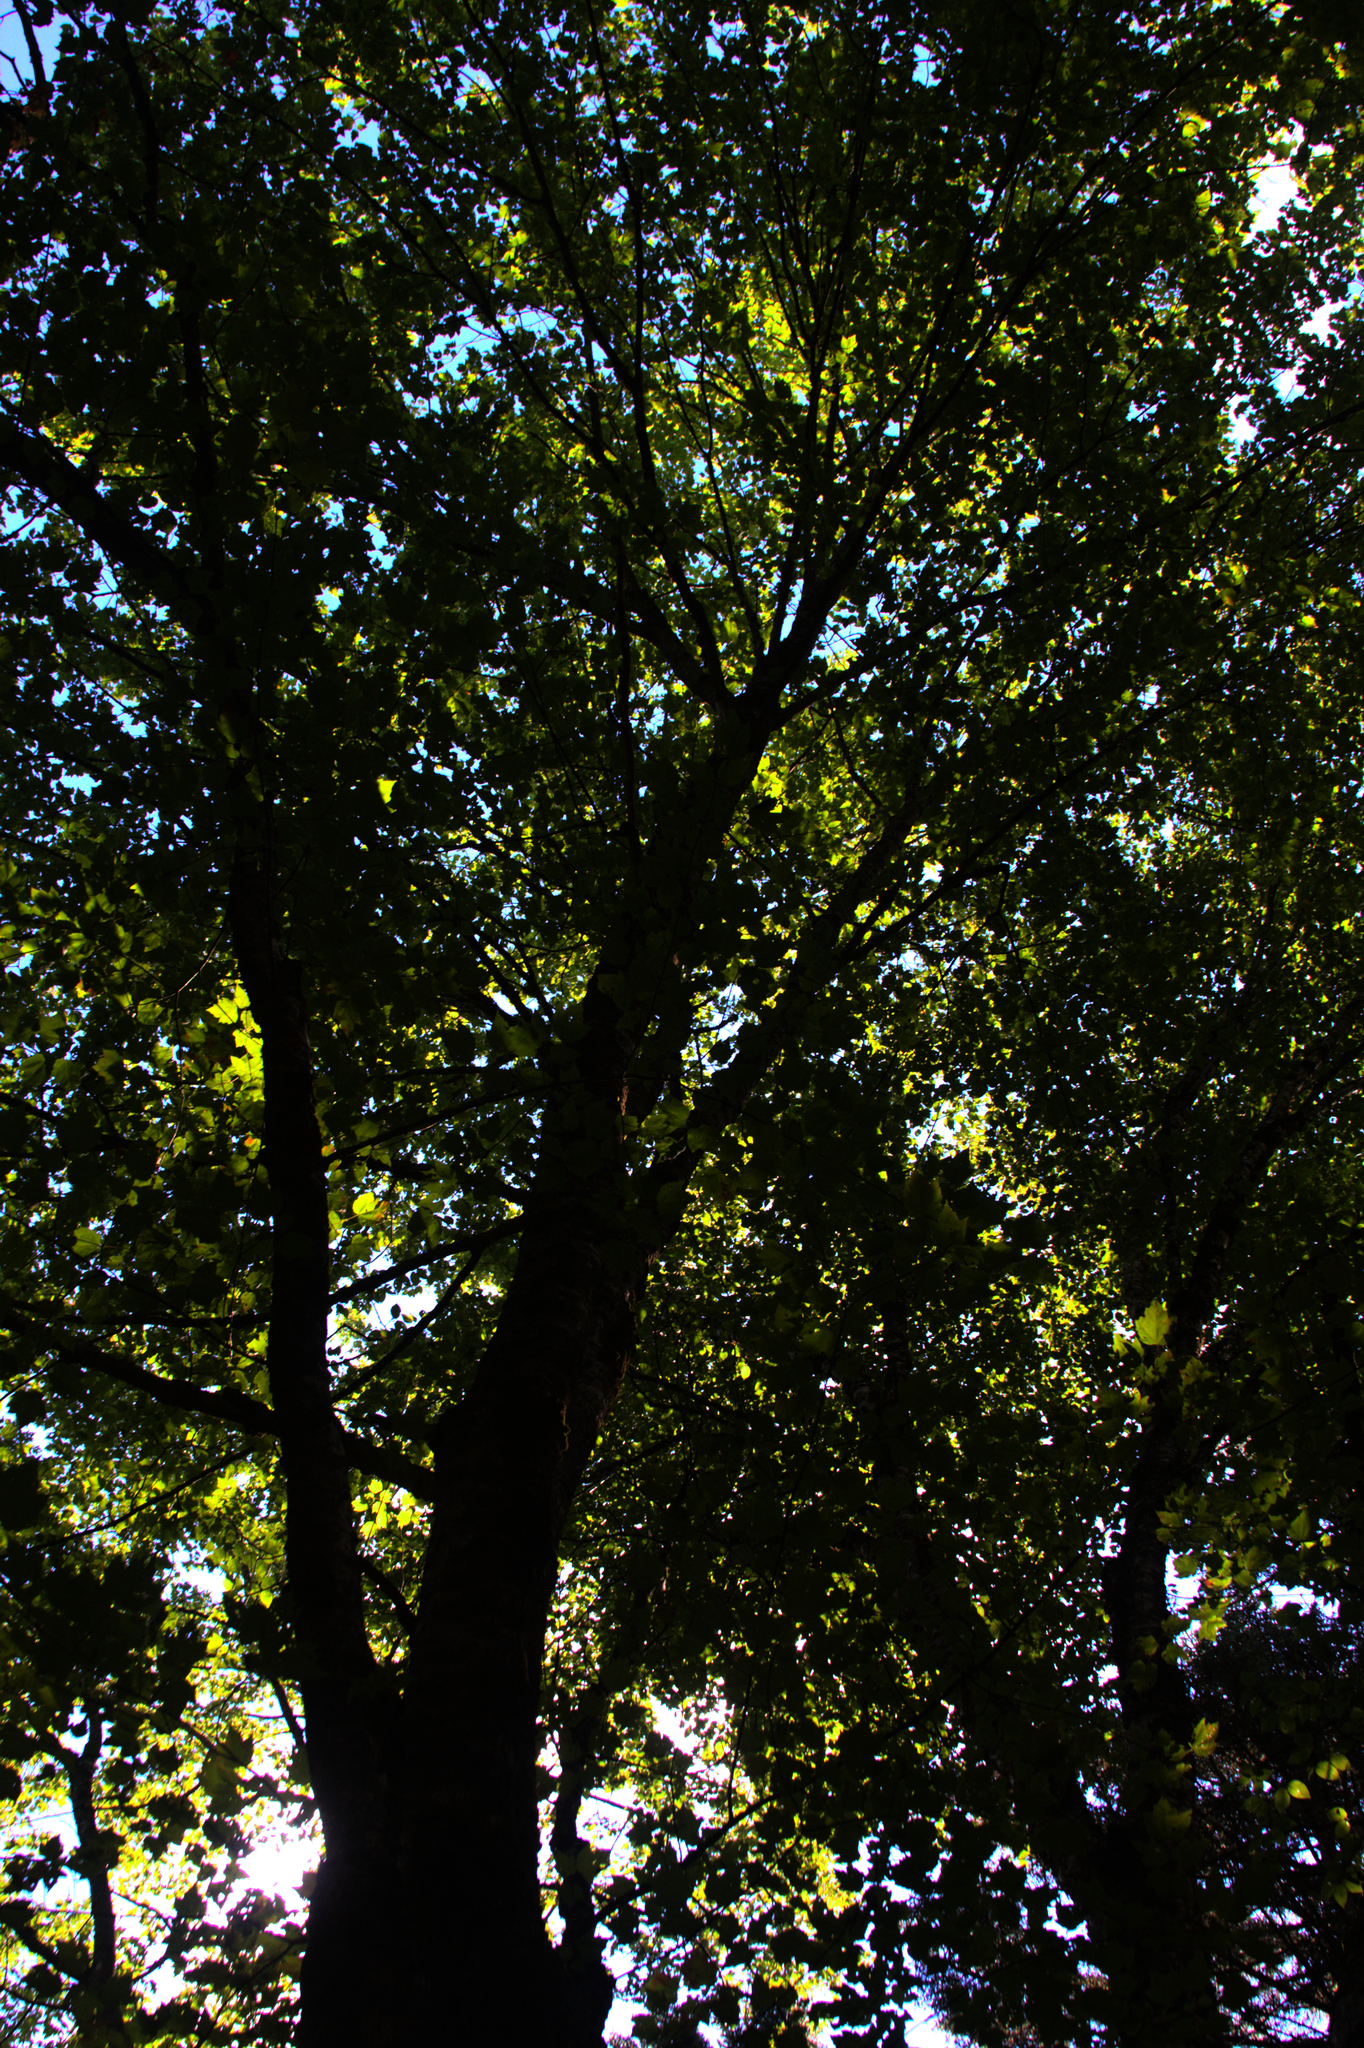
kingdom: Plantae
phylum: Tracheophyta
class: Magnoliopsida
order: Sapindales
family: Sapindaceae
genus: Acer
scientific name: Acer rubrum
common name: Red maple
